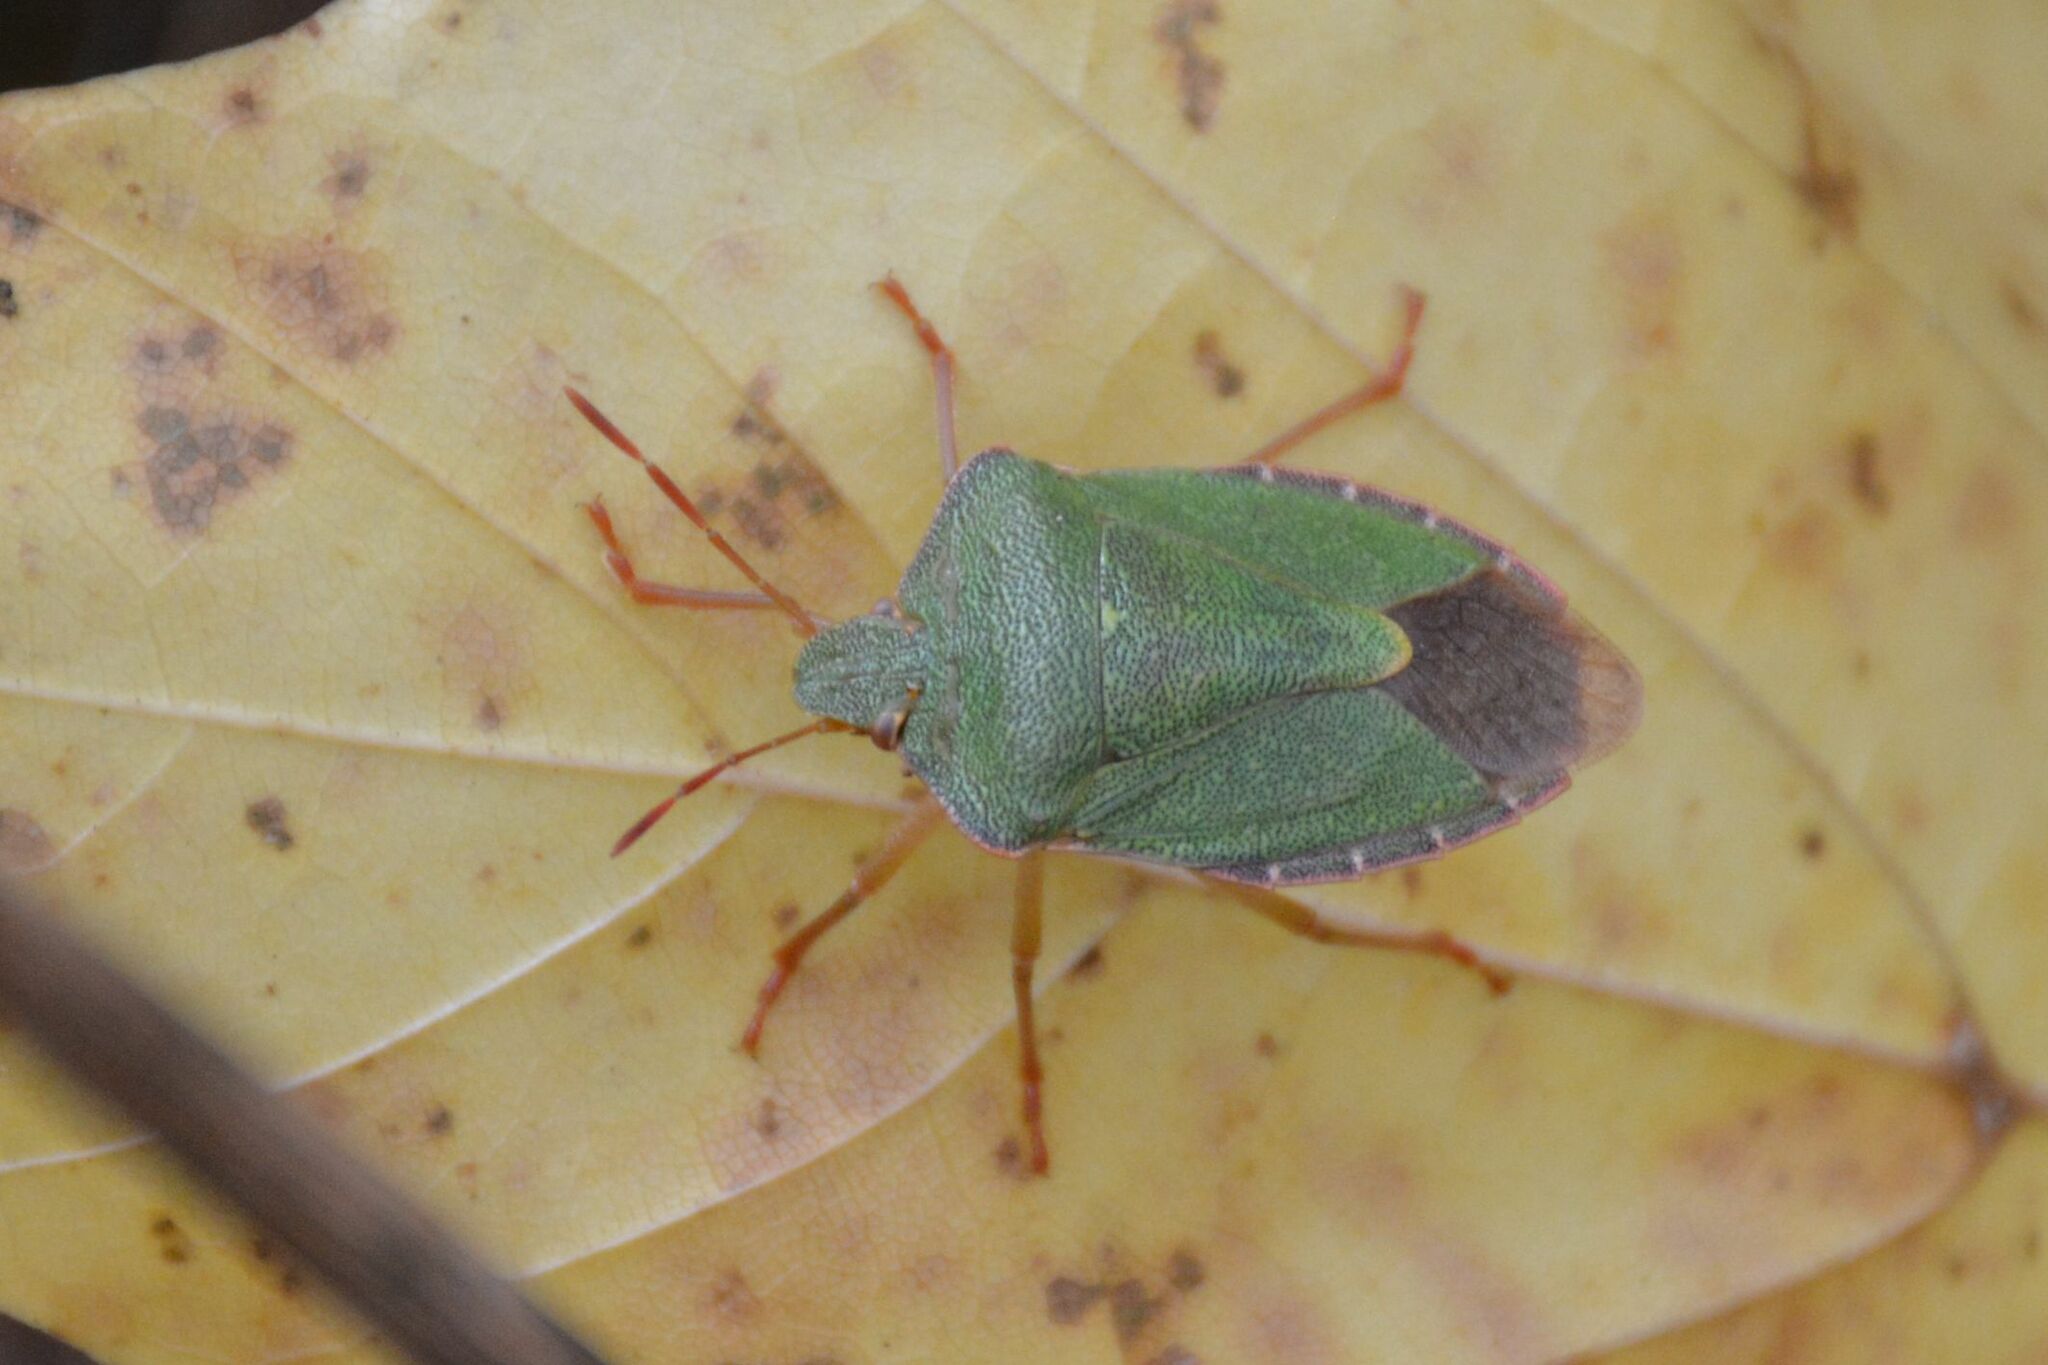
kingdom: Animalia
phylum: Arthropoda
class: Insecta
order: Hemiptera
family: Pentatomidae
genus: Palomena
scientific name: Palomena prasina
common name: Green shieldbug
